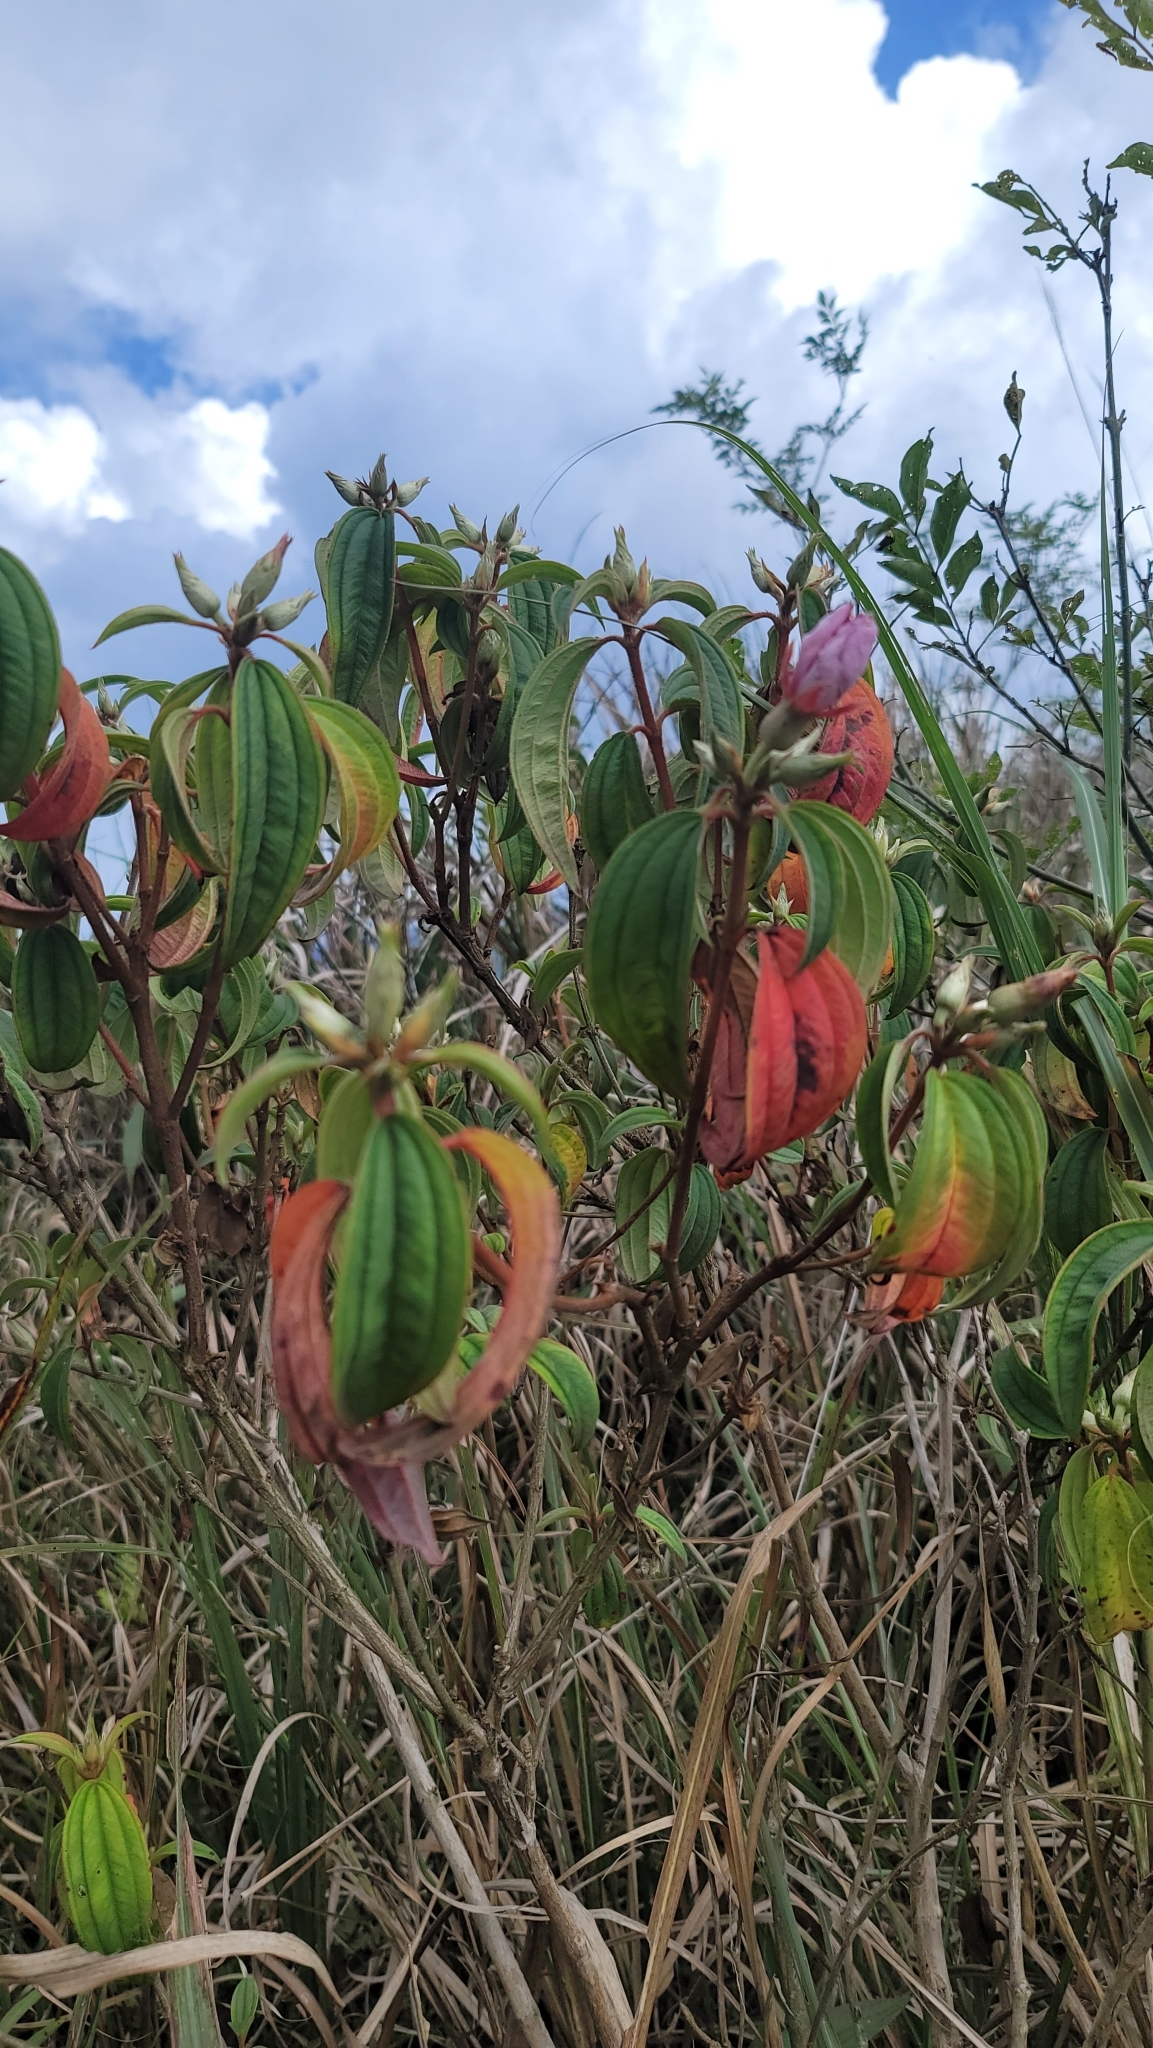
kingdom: Plantae
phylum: Tracheophyta
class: Magnoliopsida
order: Myrtales
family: Melastomataceae
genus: Melastoma
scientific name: Melastoma malabathricum
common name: Indian-rhododendron
